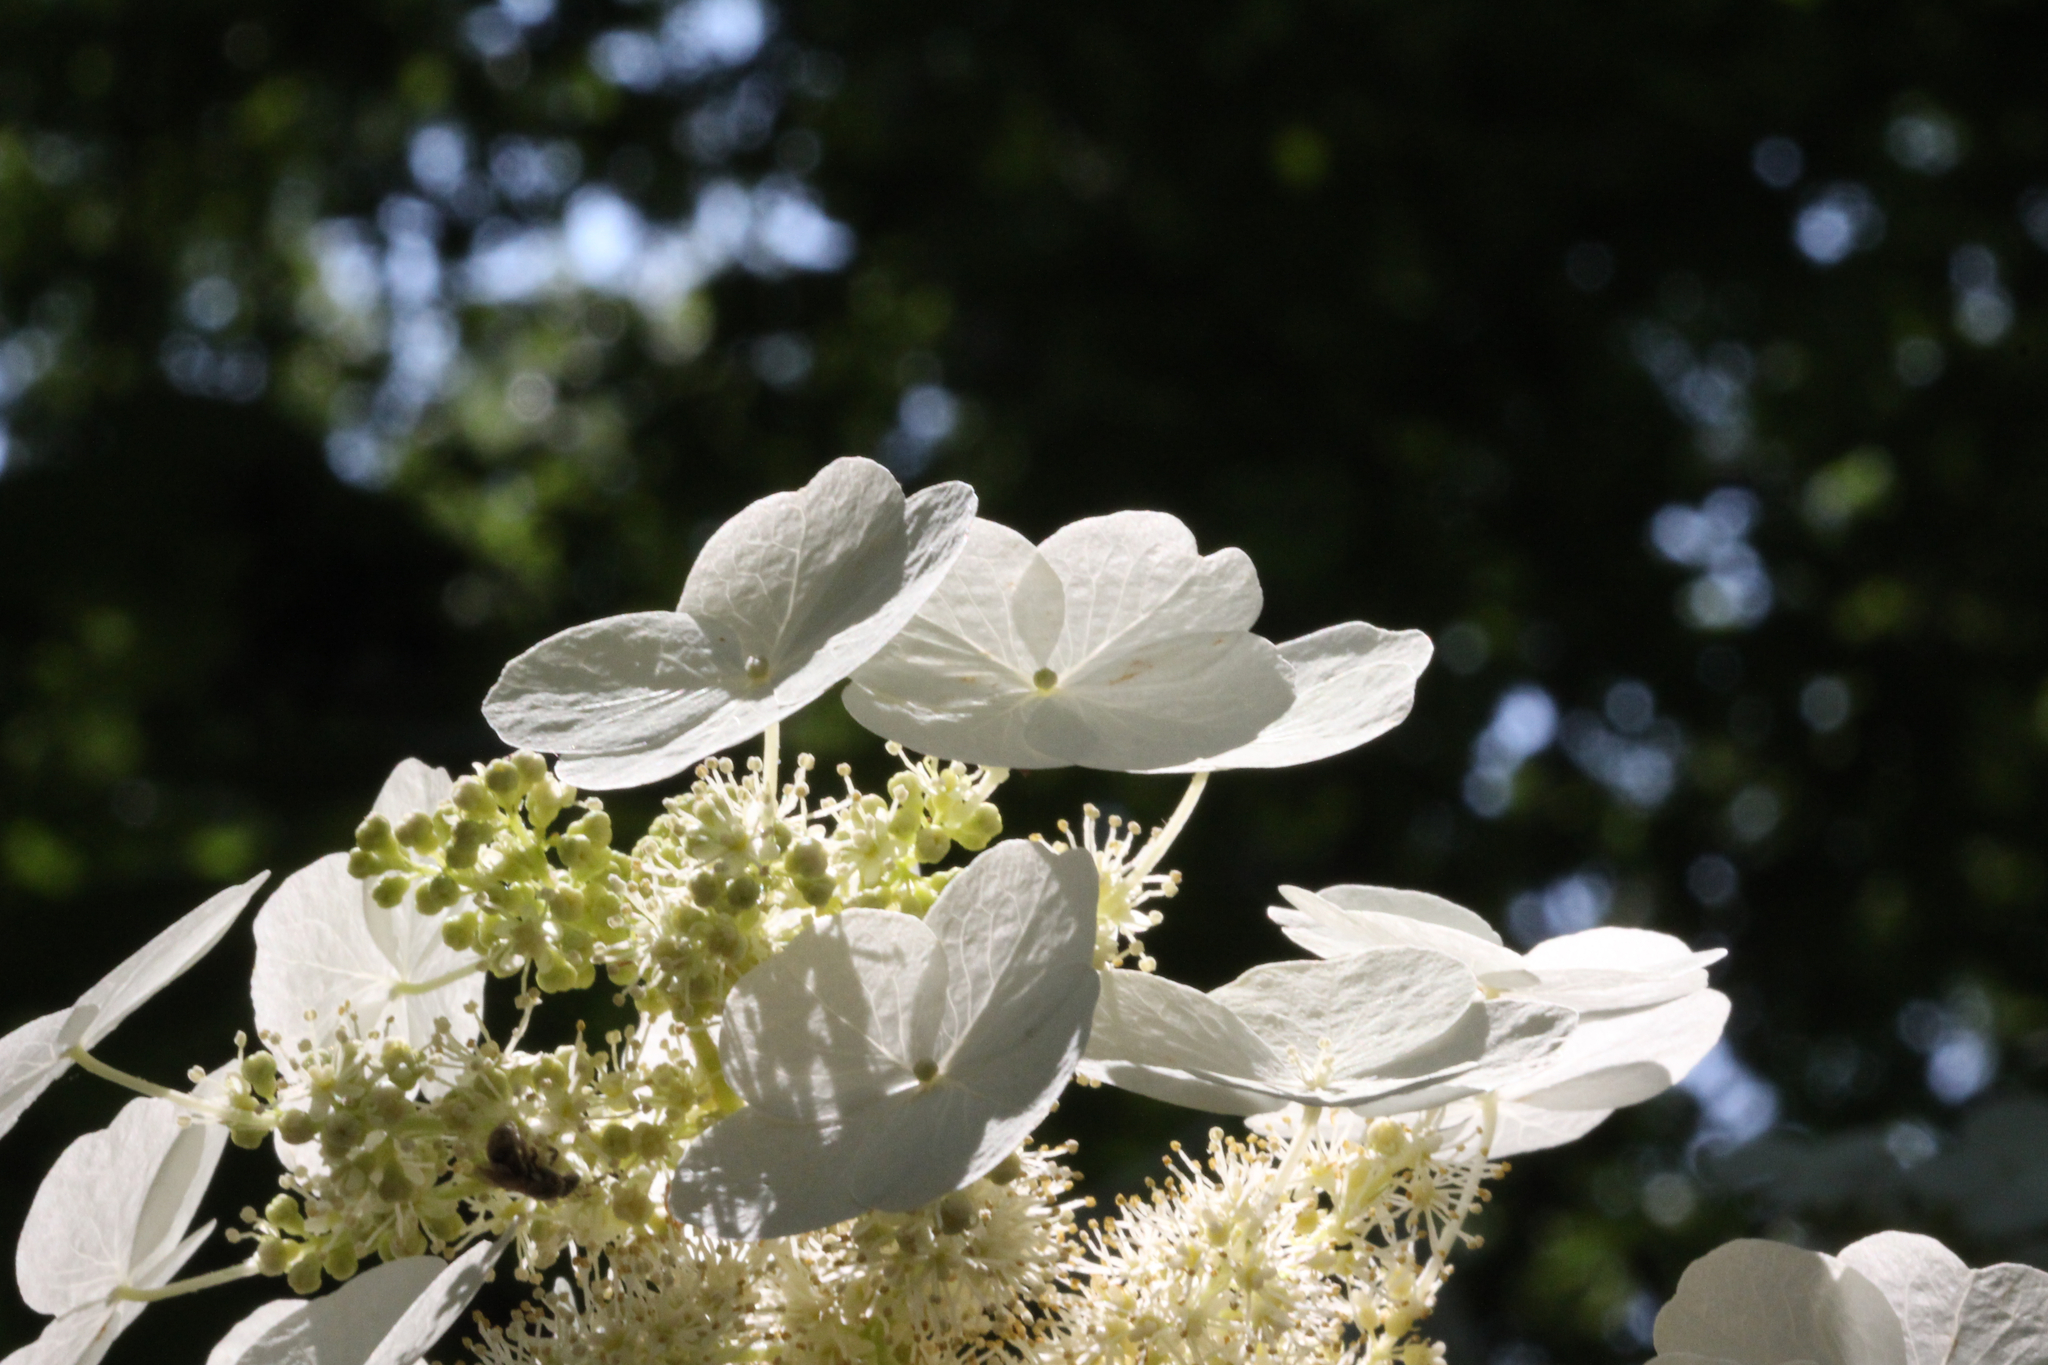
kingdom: Plantae
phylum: Tracheophyta
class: Magnoliopsida
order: Cornales
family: Hydrangeaceae
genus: Hydrangea
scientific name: Hydrangea quercifolia
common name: Oak-leaf hydrangea
